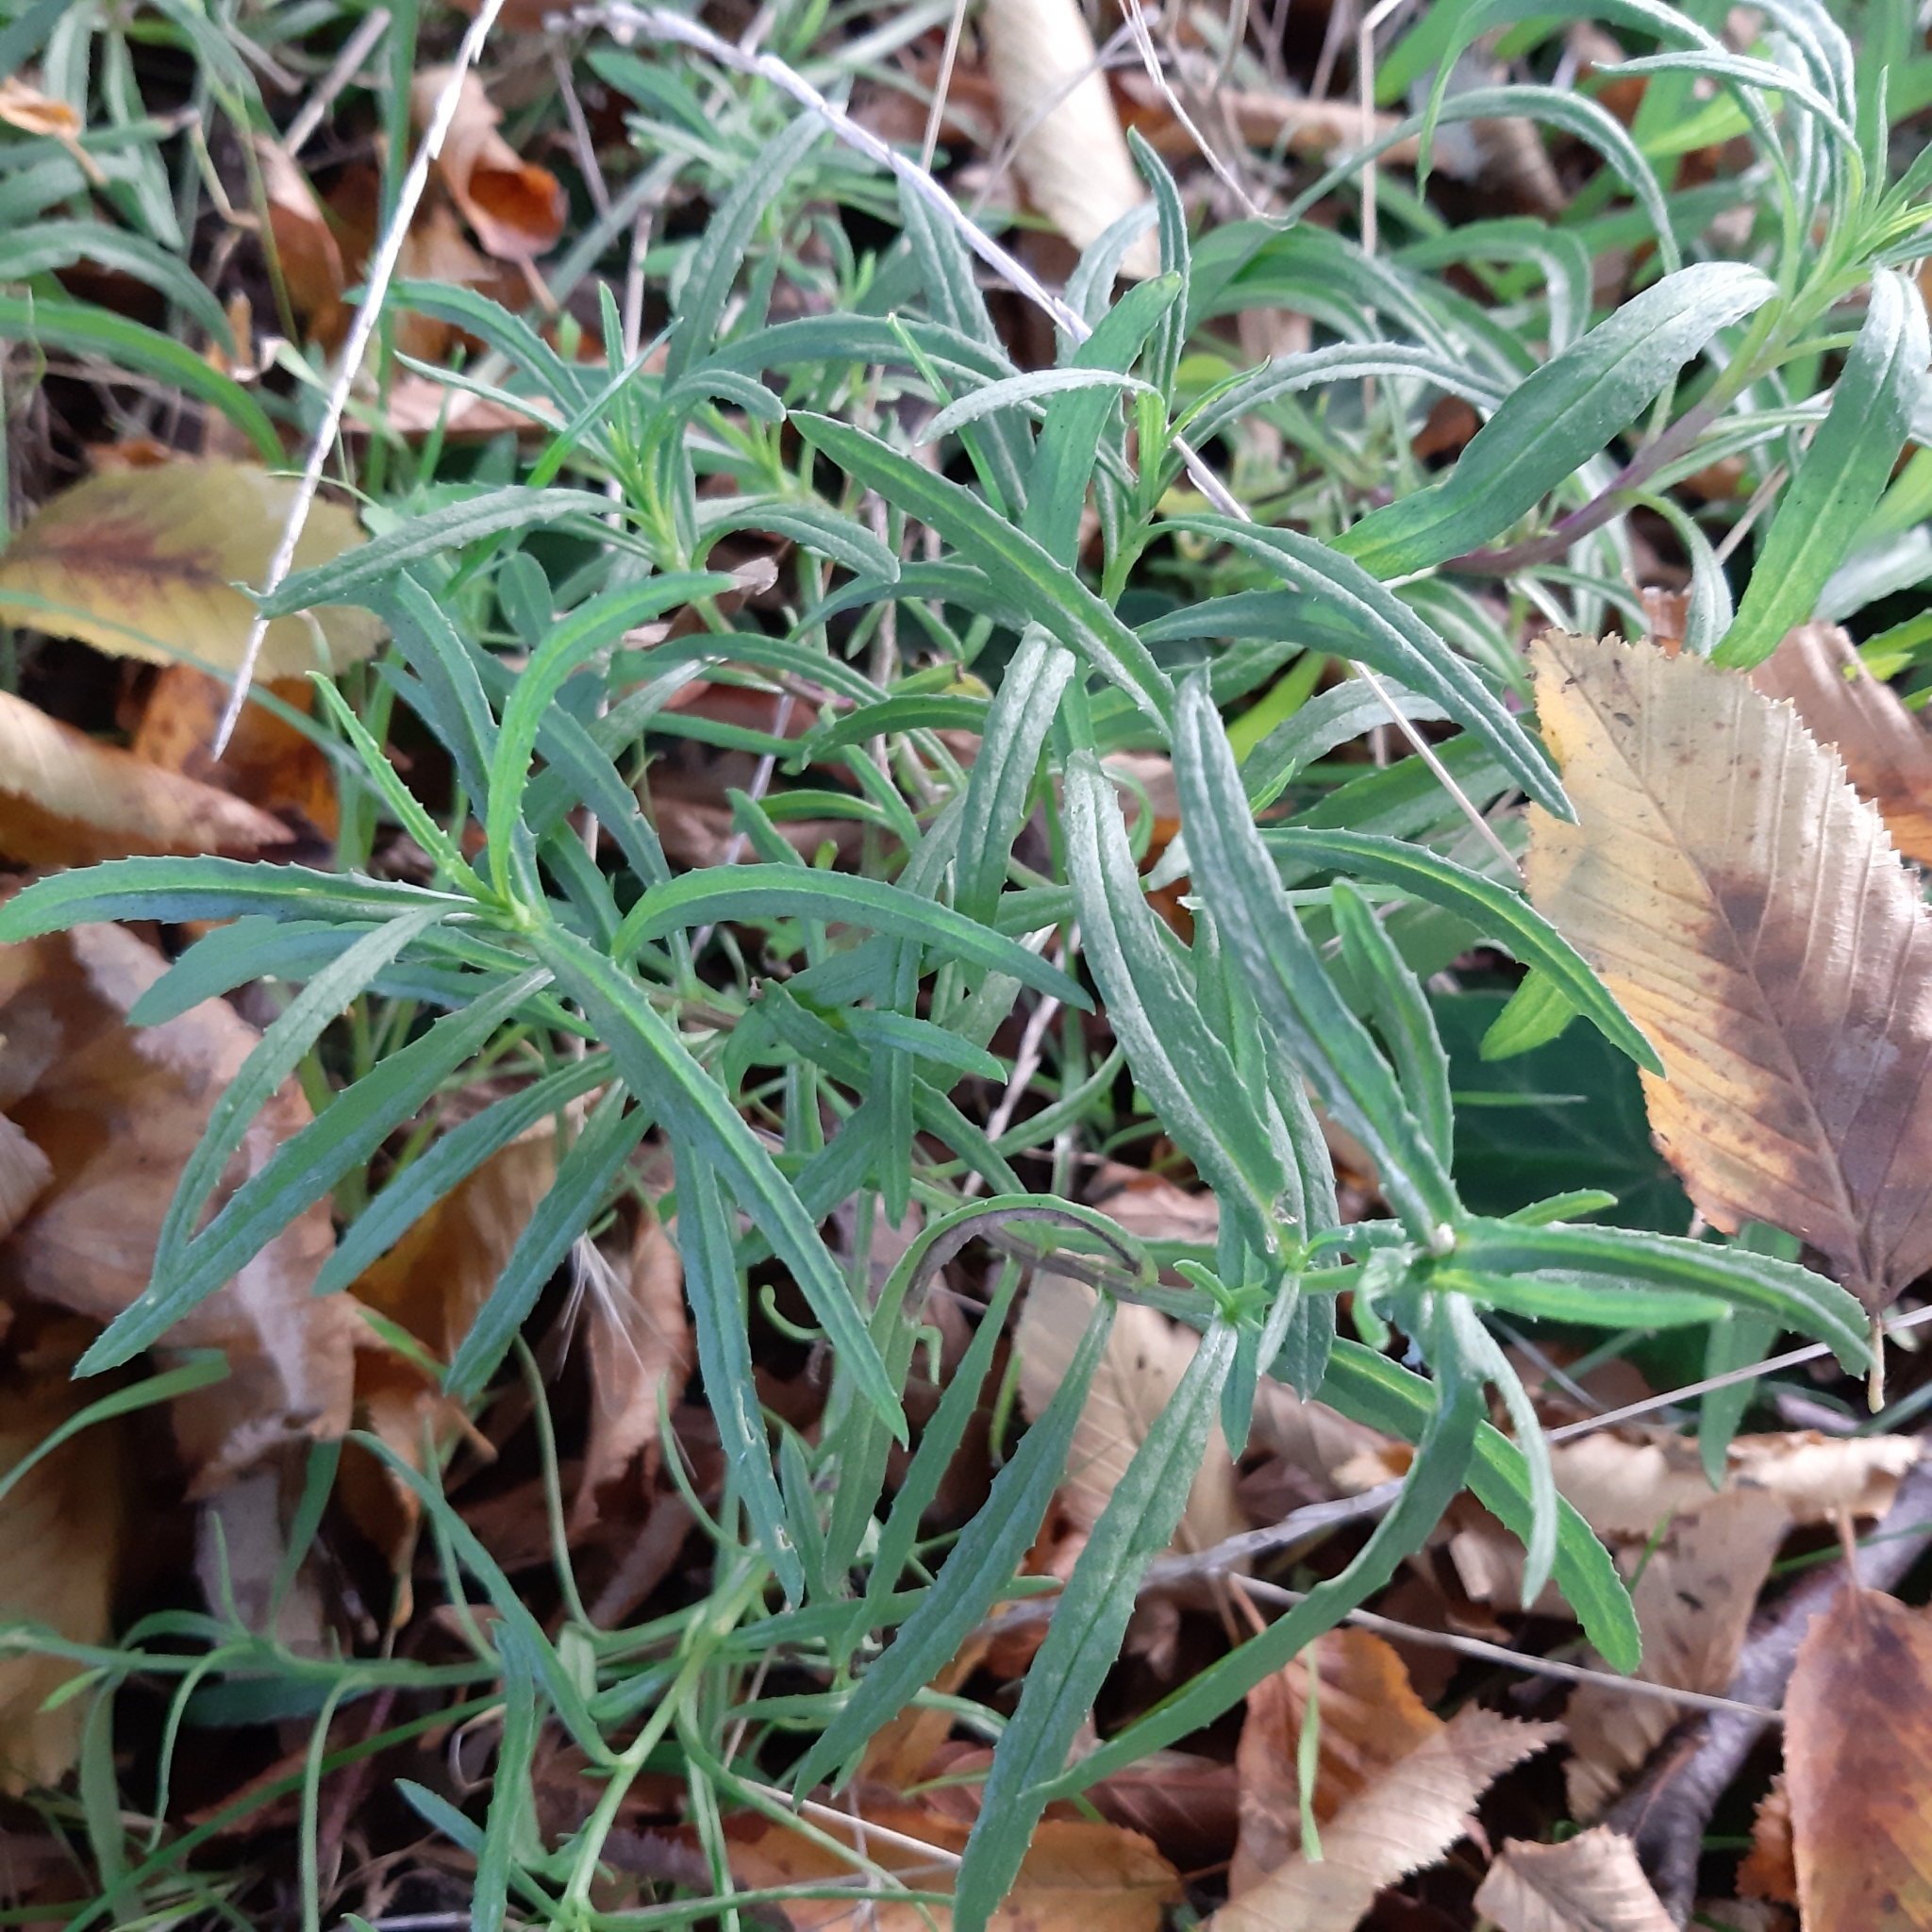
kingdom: Plantae
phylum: Tracheophyta
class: Magnoliopsida
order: Asterales
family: Asteraceae
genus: Senecio
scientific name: Senecio inaequidens
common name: Narrow-leaved ragwort
